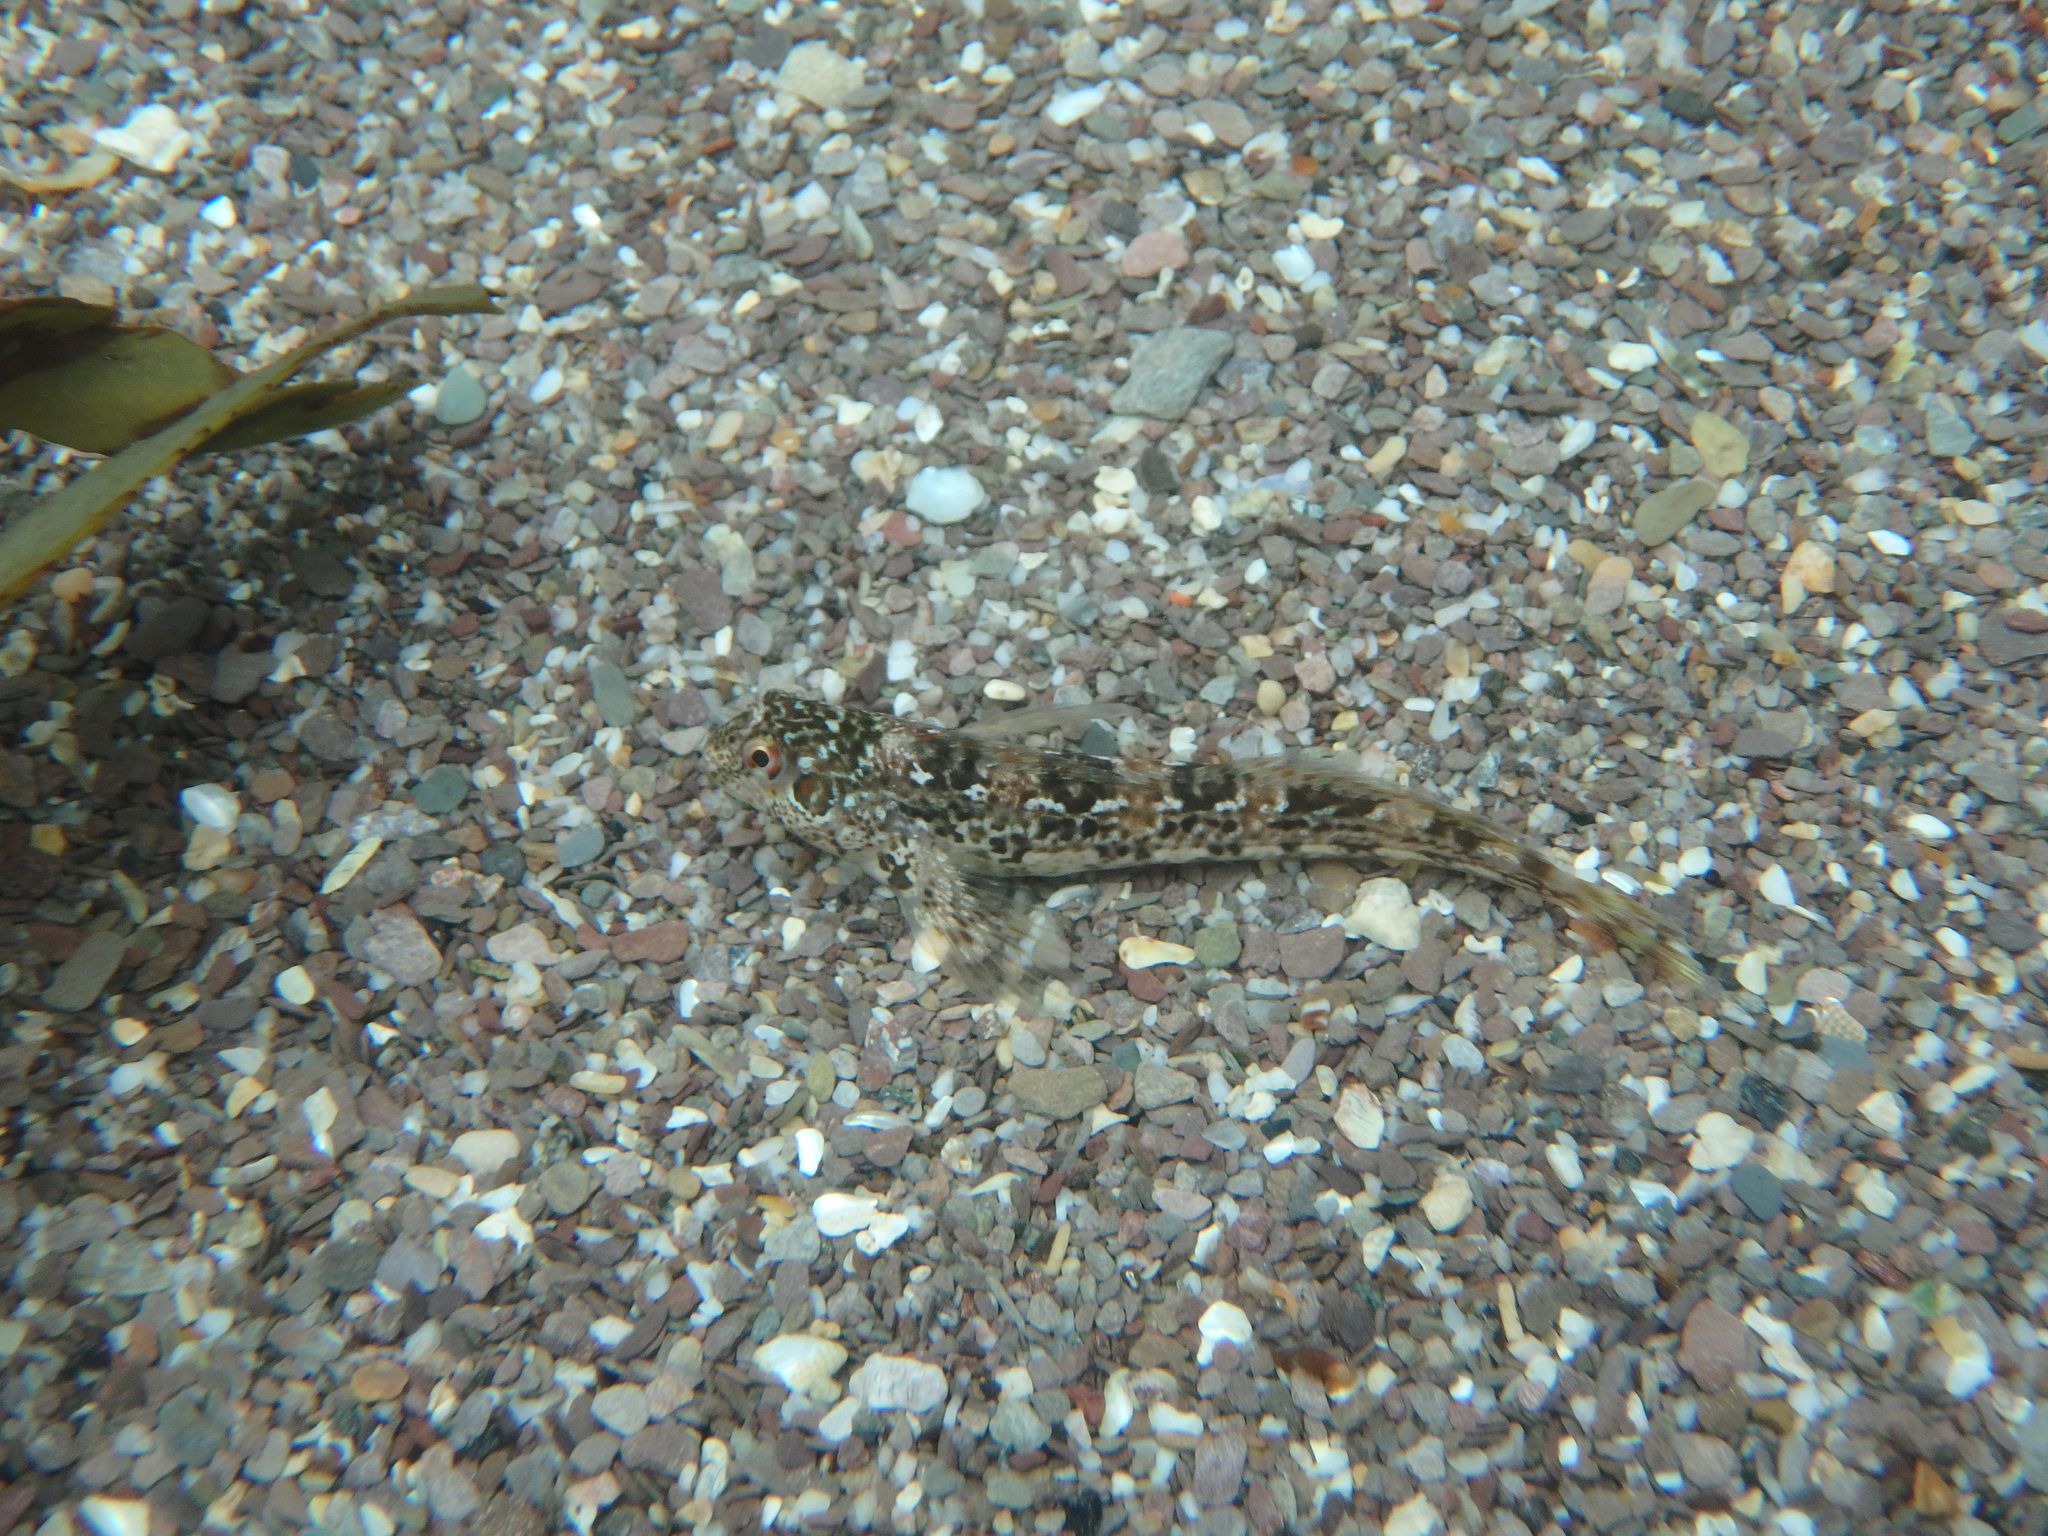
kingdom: Animalia
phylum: Chordata
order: Perciformes
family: Blenniidae
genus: Lipophrys
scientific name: Lipophrys pholis
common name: Shanny
